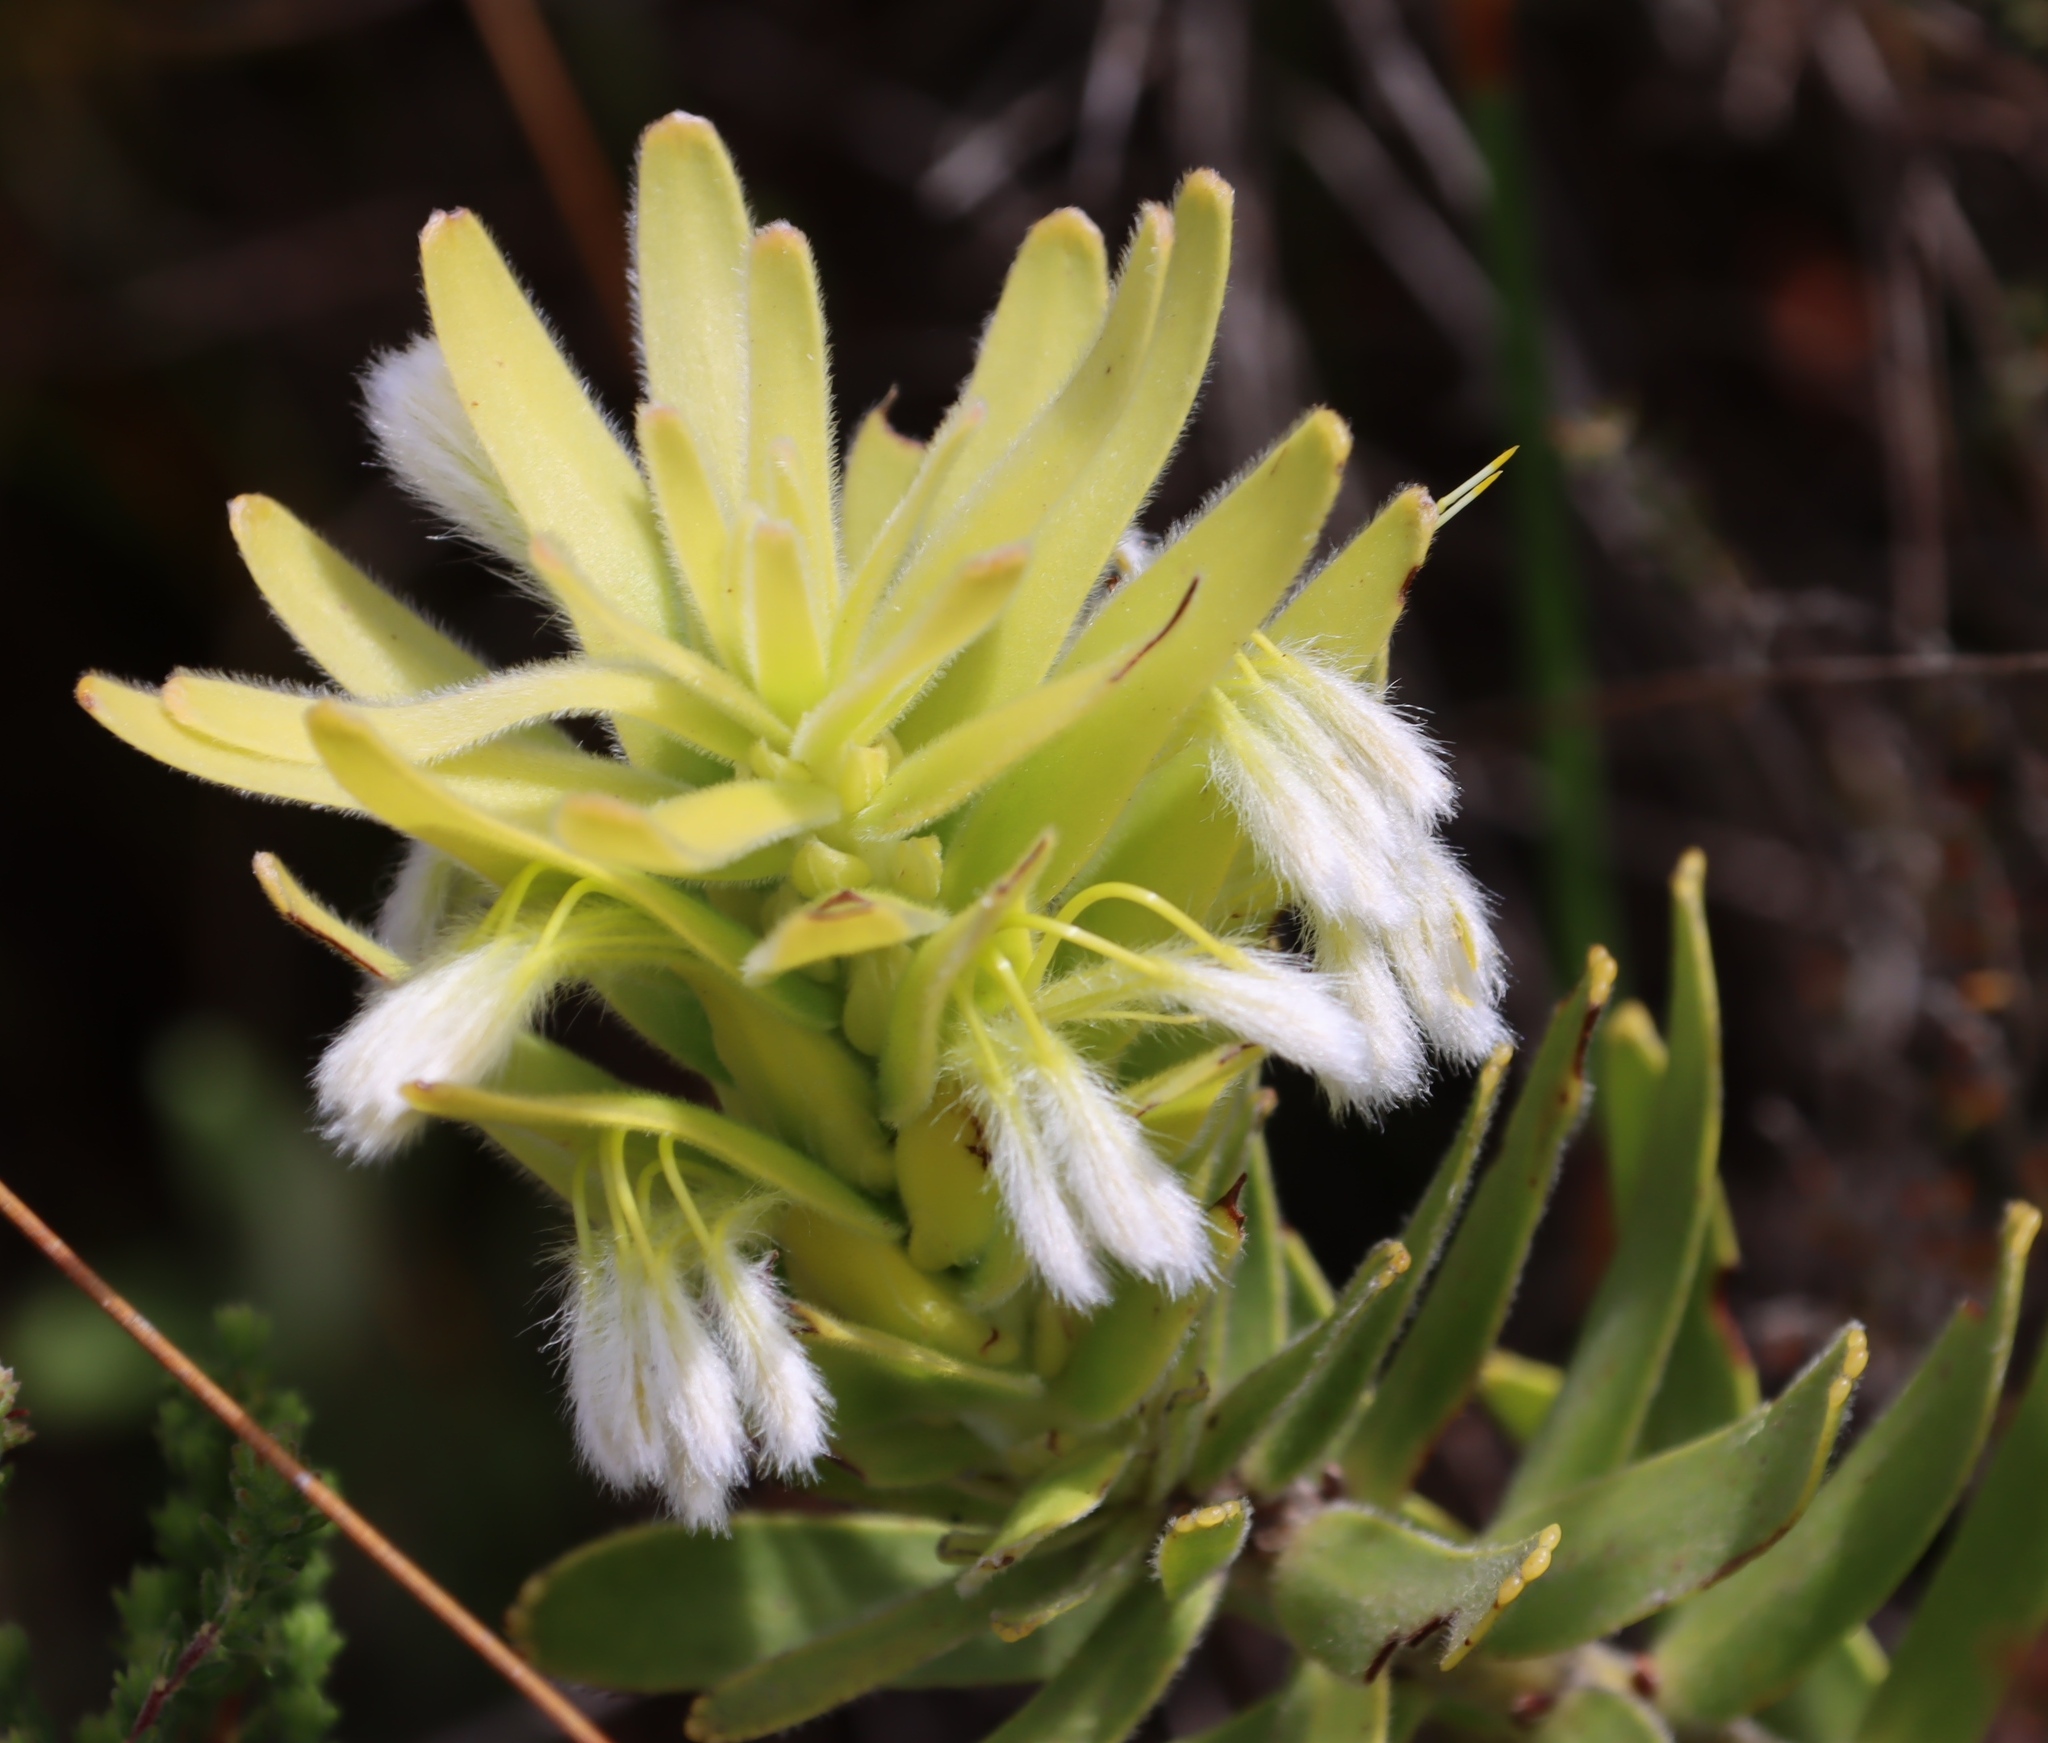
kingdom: Plantae
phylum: Tracheophyta
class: Magnoliopsida
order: Proteales
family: Proteaceae
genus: Mimetes
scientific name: Mimetes cucullatus
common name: Common pagoda
